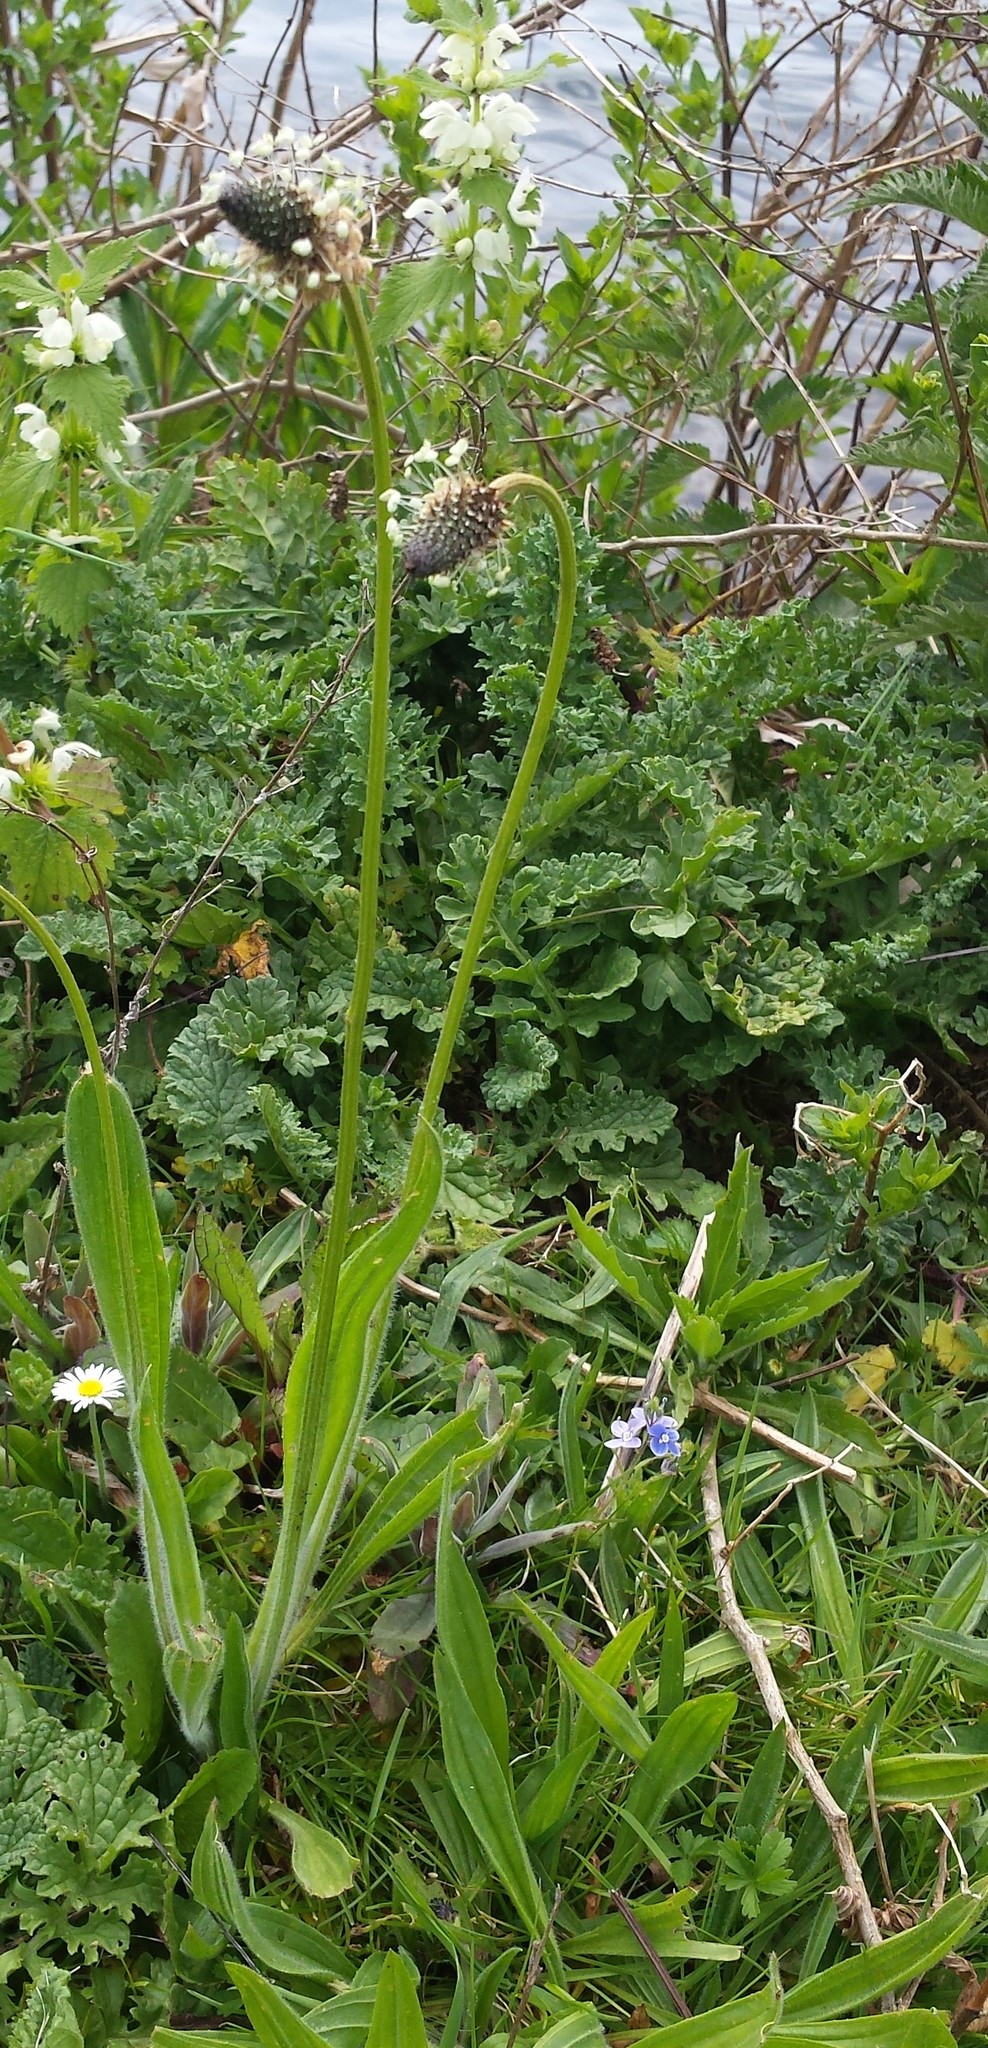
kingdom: Plantae
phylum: Tracheophyta
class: Magnoliopsida
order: Lamiales
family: Plantaginaceae
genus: Plantago
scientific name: Plantago lanceolata
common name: Ribwort plantain
